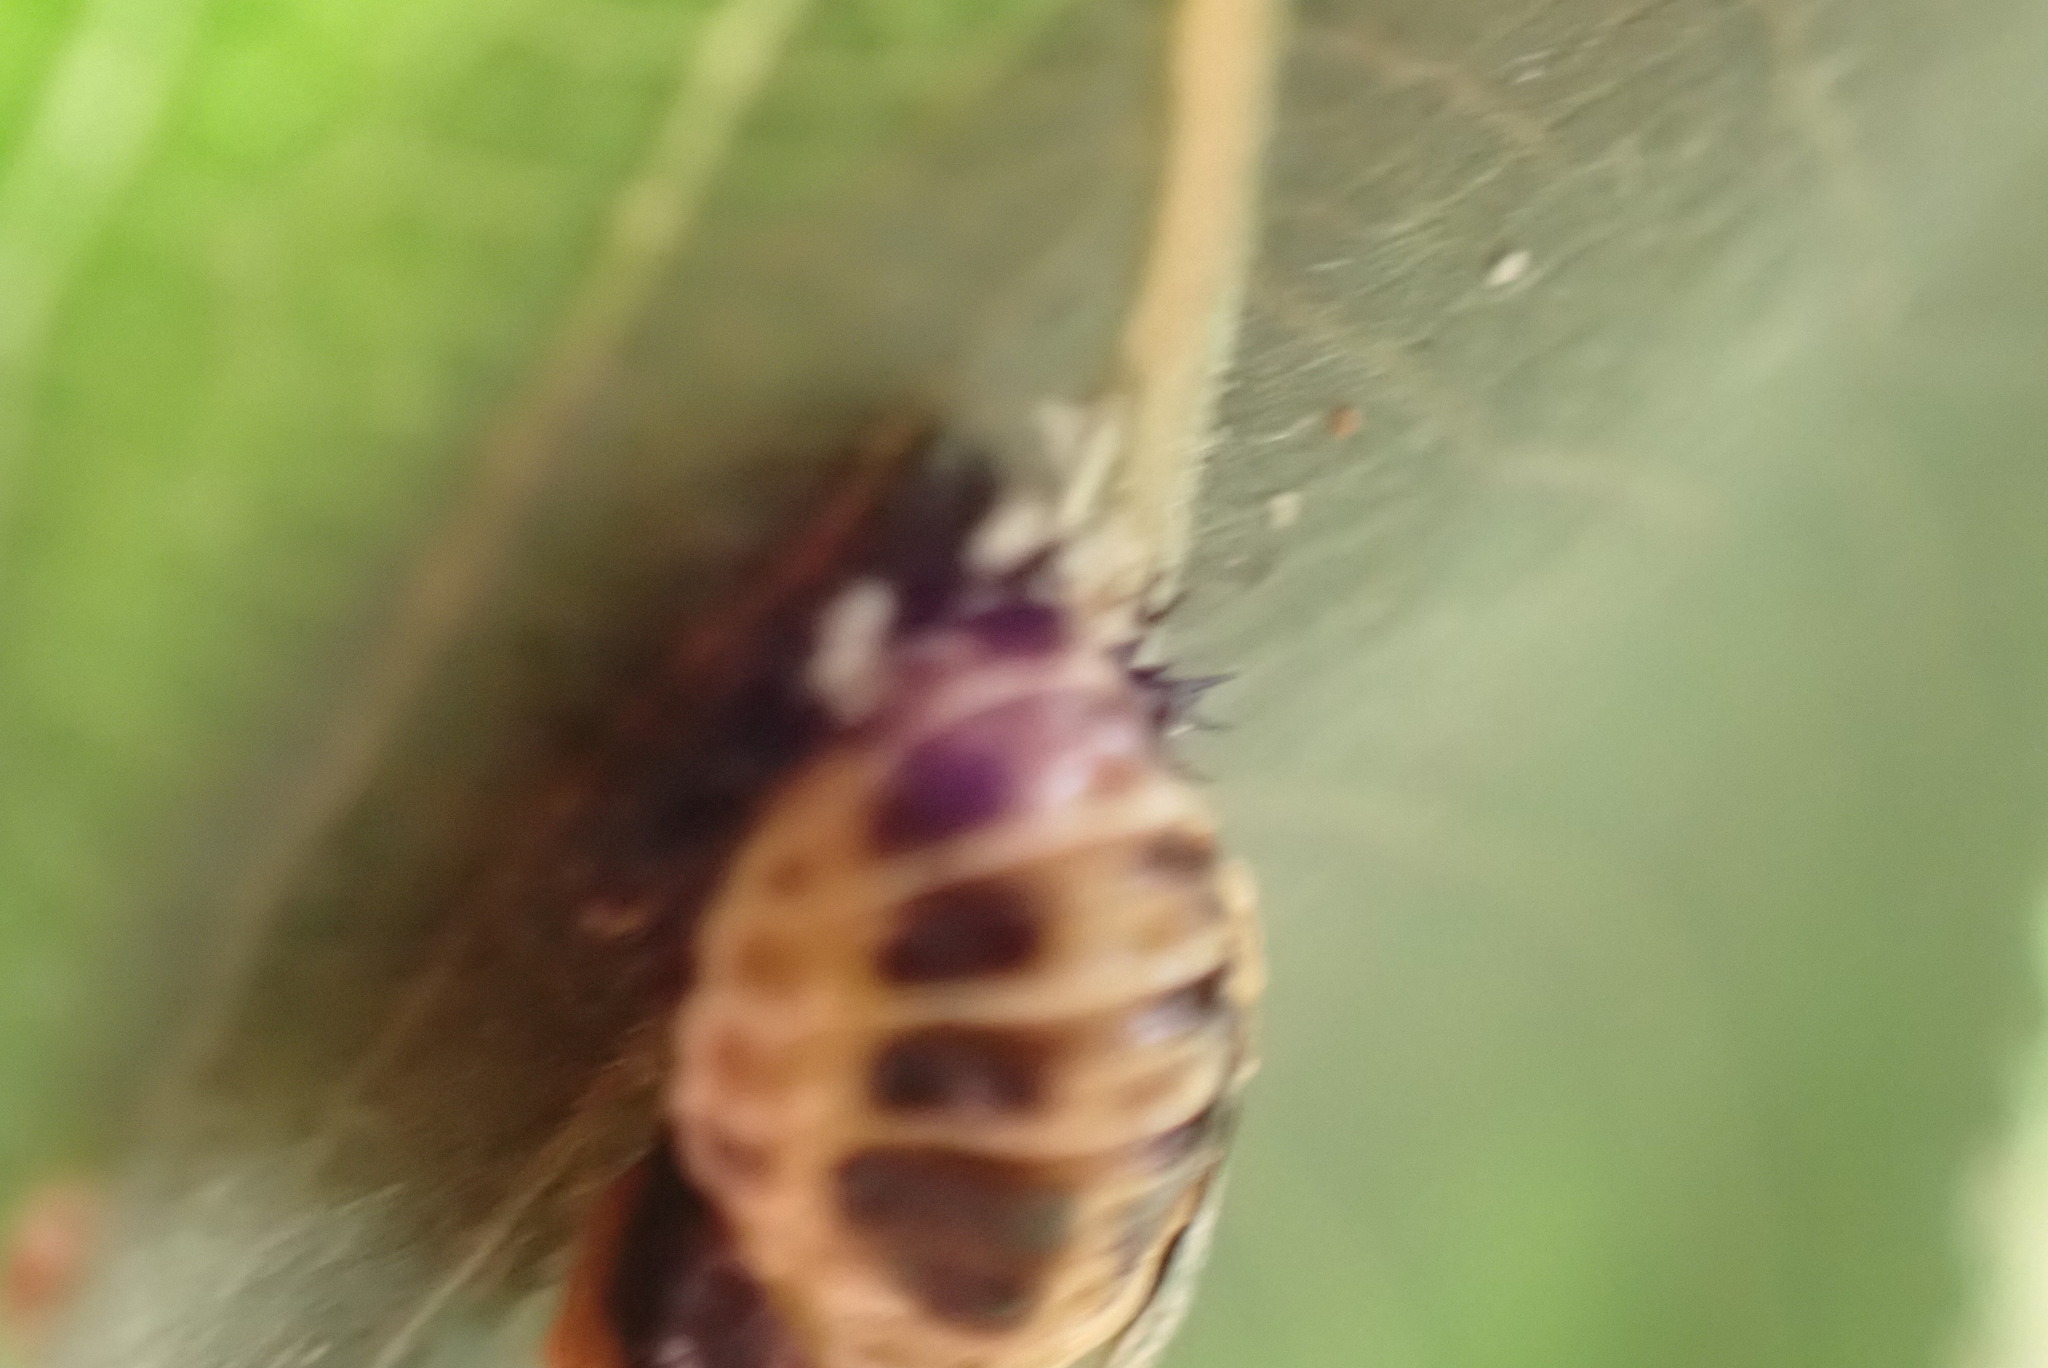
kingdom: Animalia
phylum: Arthropoda
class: Insecta
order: Coleoptera
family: Coccinellidae
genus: Harmonia
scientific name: Harmonia axyridis
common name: Harlequin ladybird
